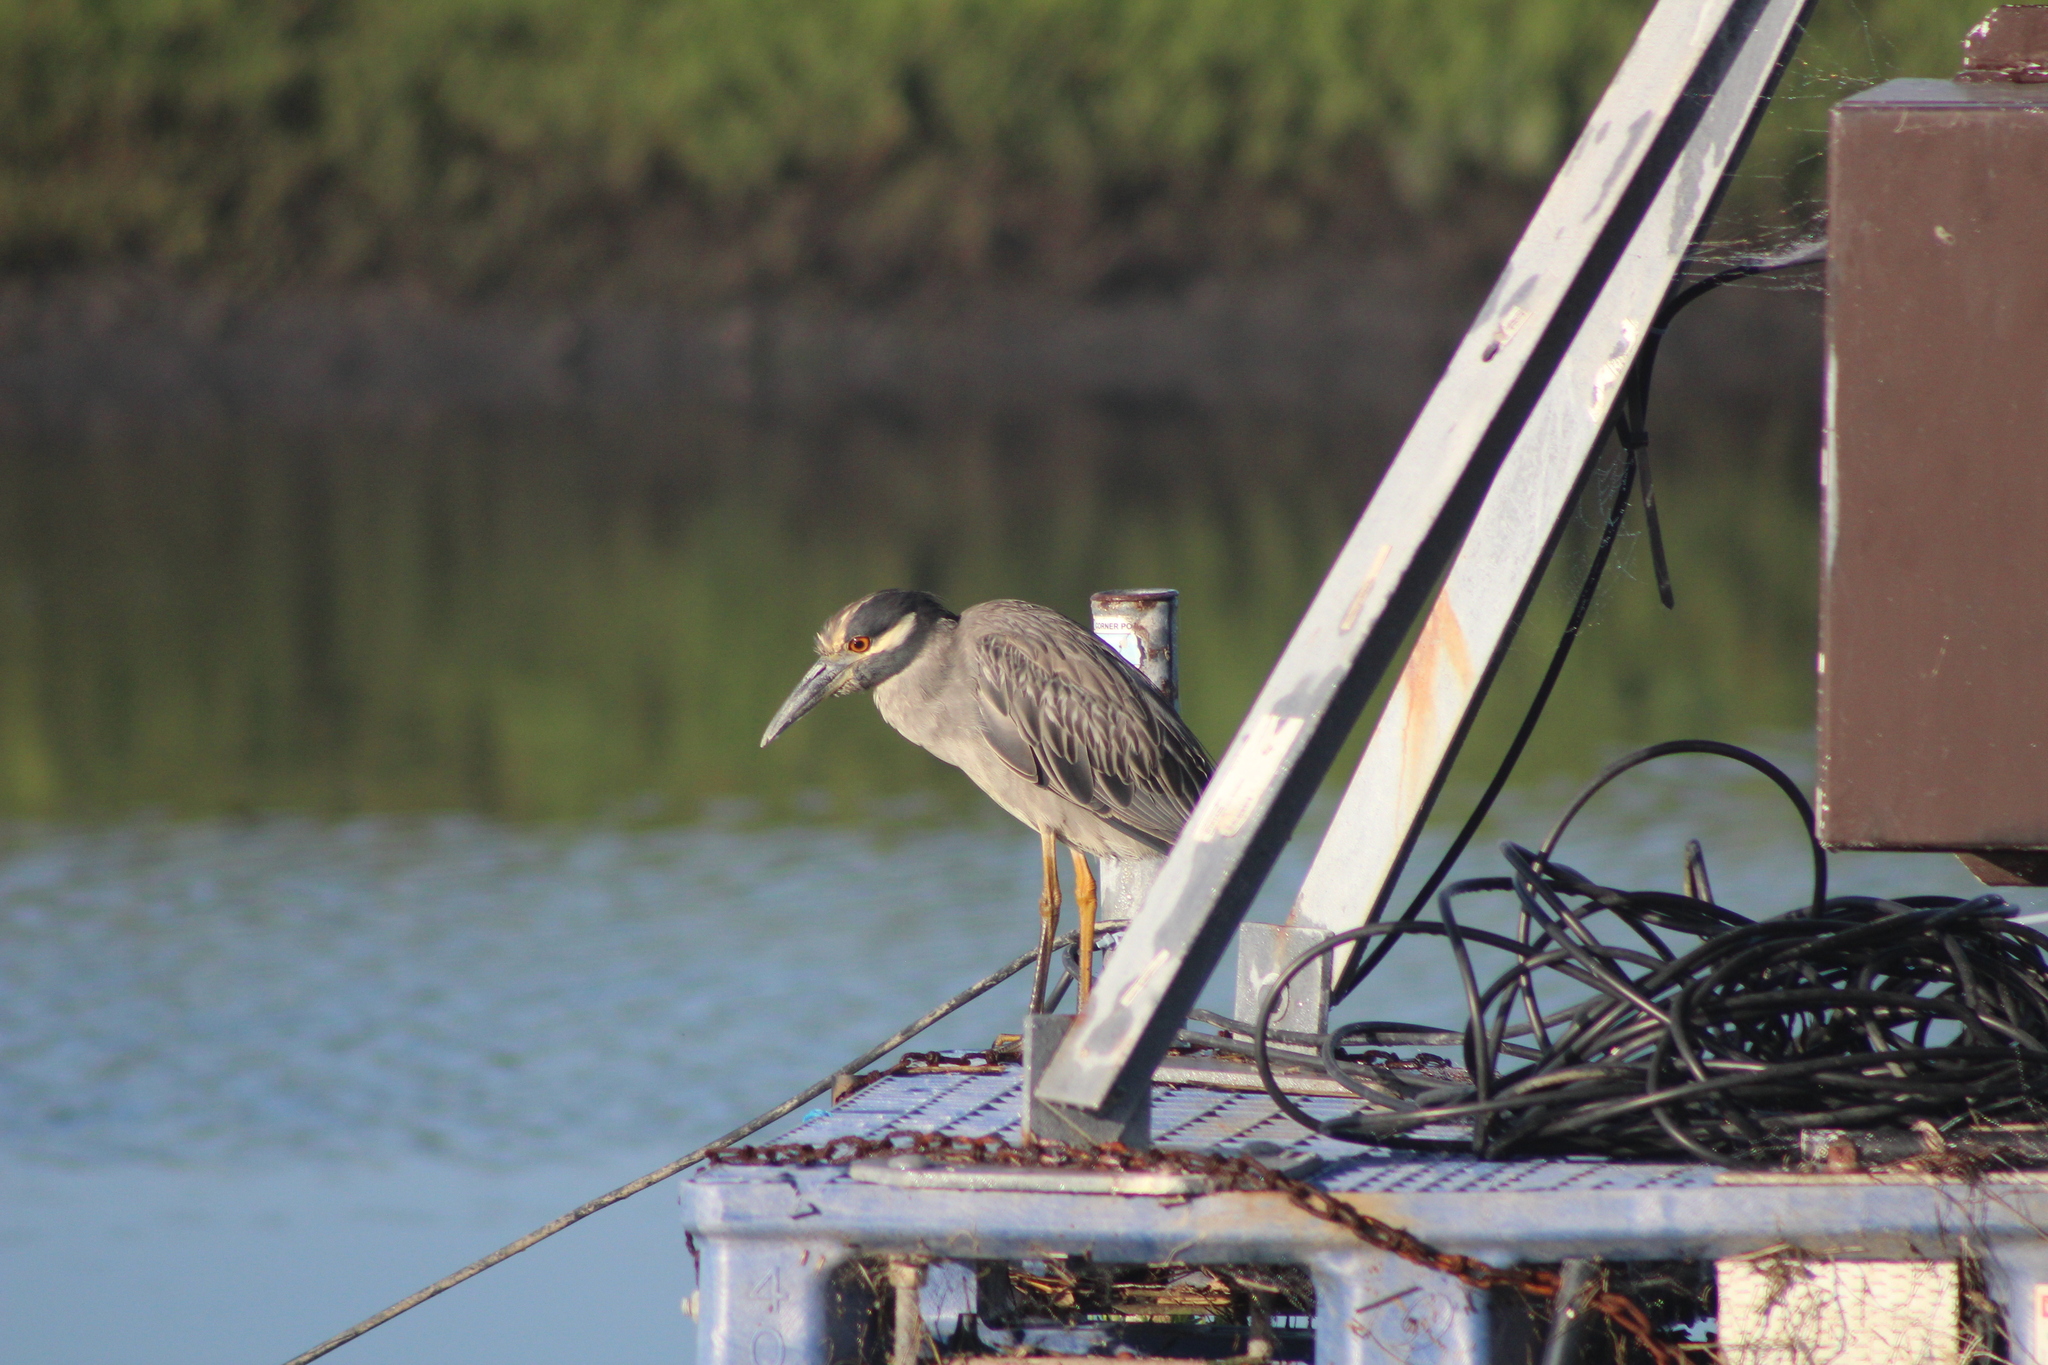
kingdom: Animalia
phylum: Chordata
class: Aves
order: Pelecaniformes
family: Ardeidae
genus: Nyctanassa
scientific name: Nyctanassa violacea
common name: Yellow-crowned night heron
